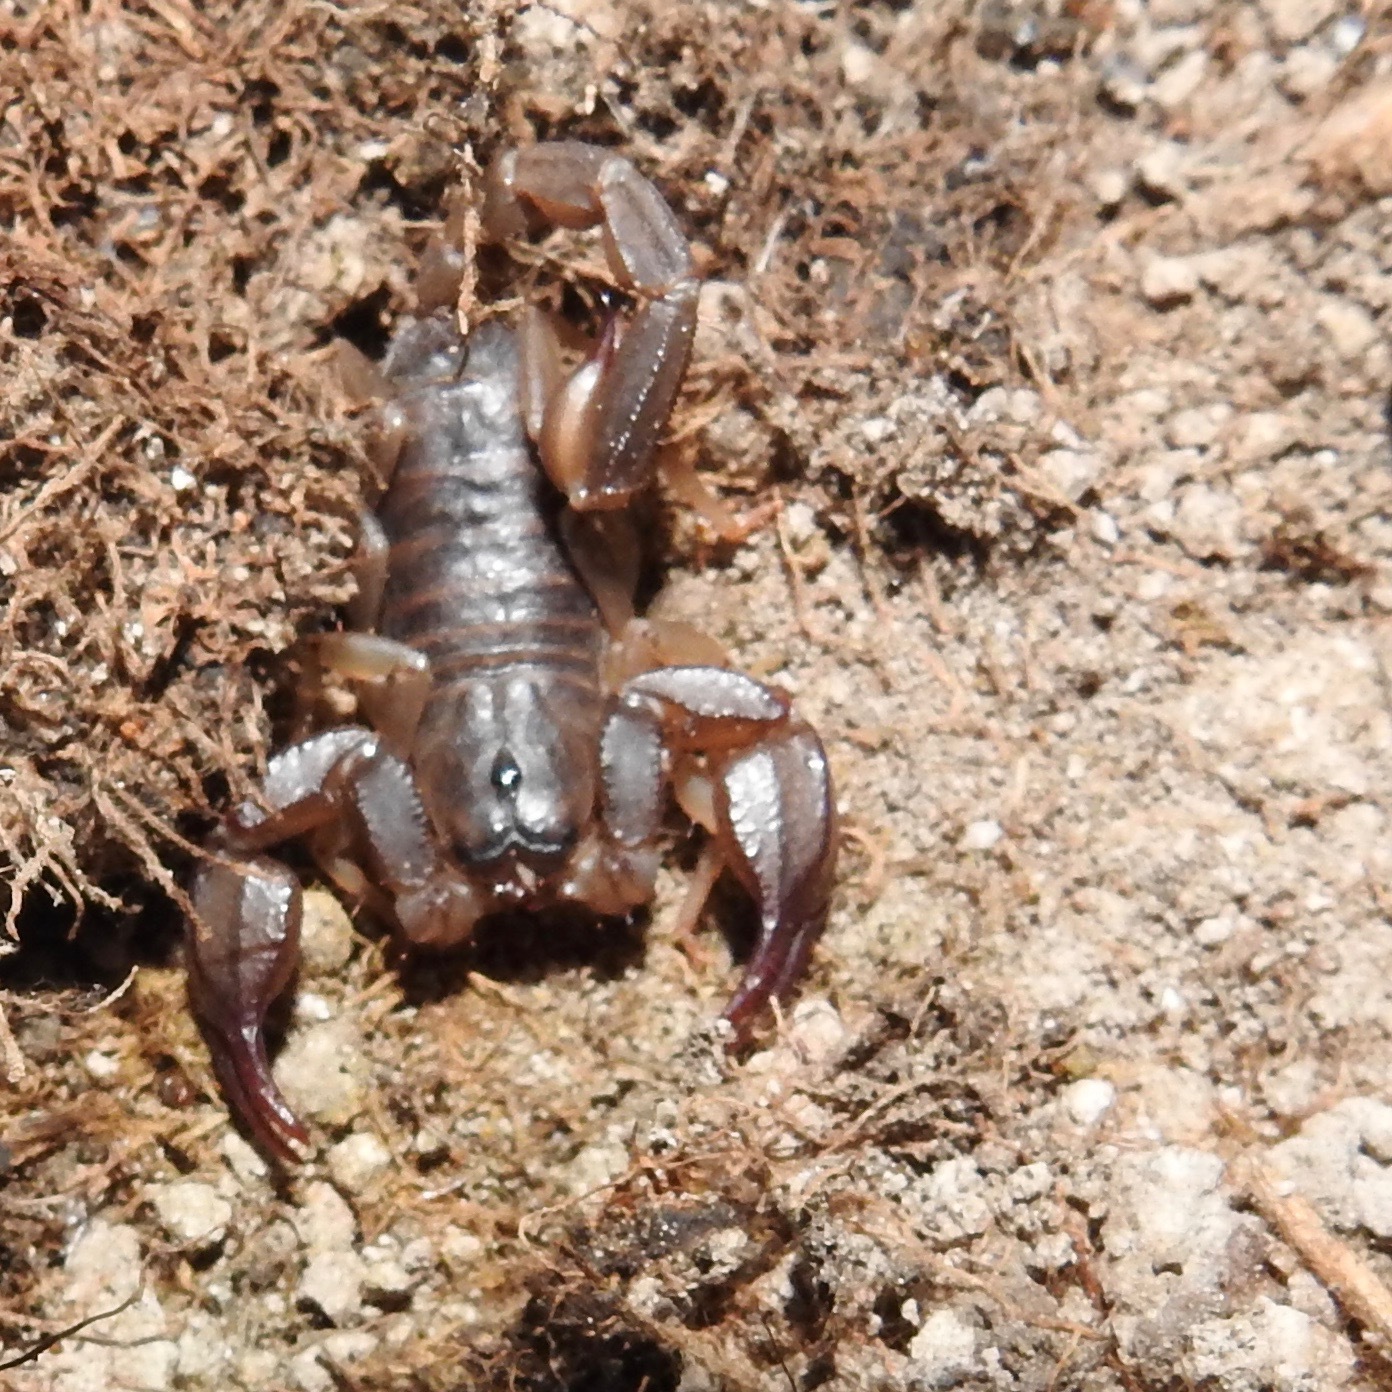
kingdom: Animalia
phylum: Arthropoda
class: Arachnida
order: Scorpiones
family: Chactidae
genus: Uroctonus
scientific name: Uroctonus mordax
